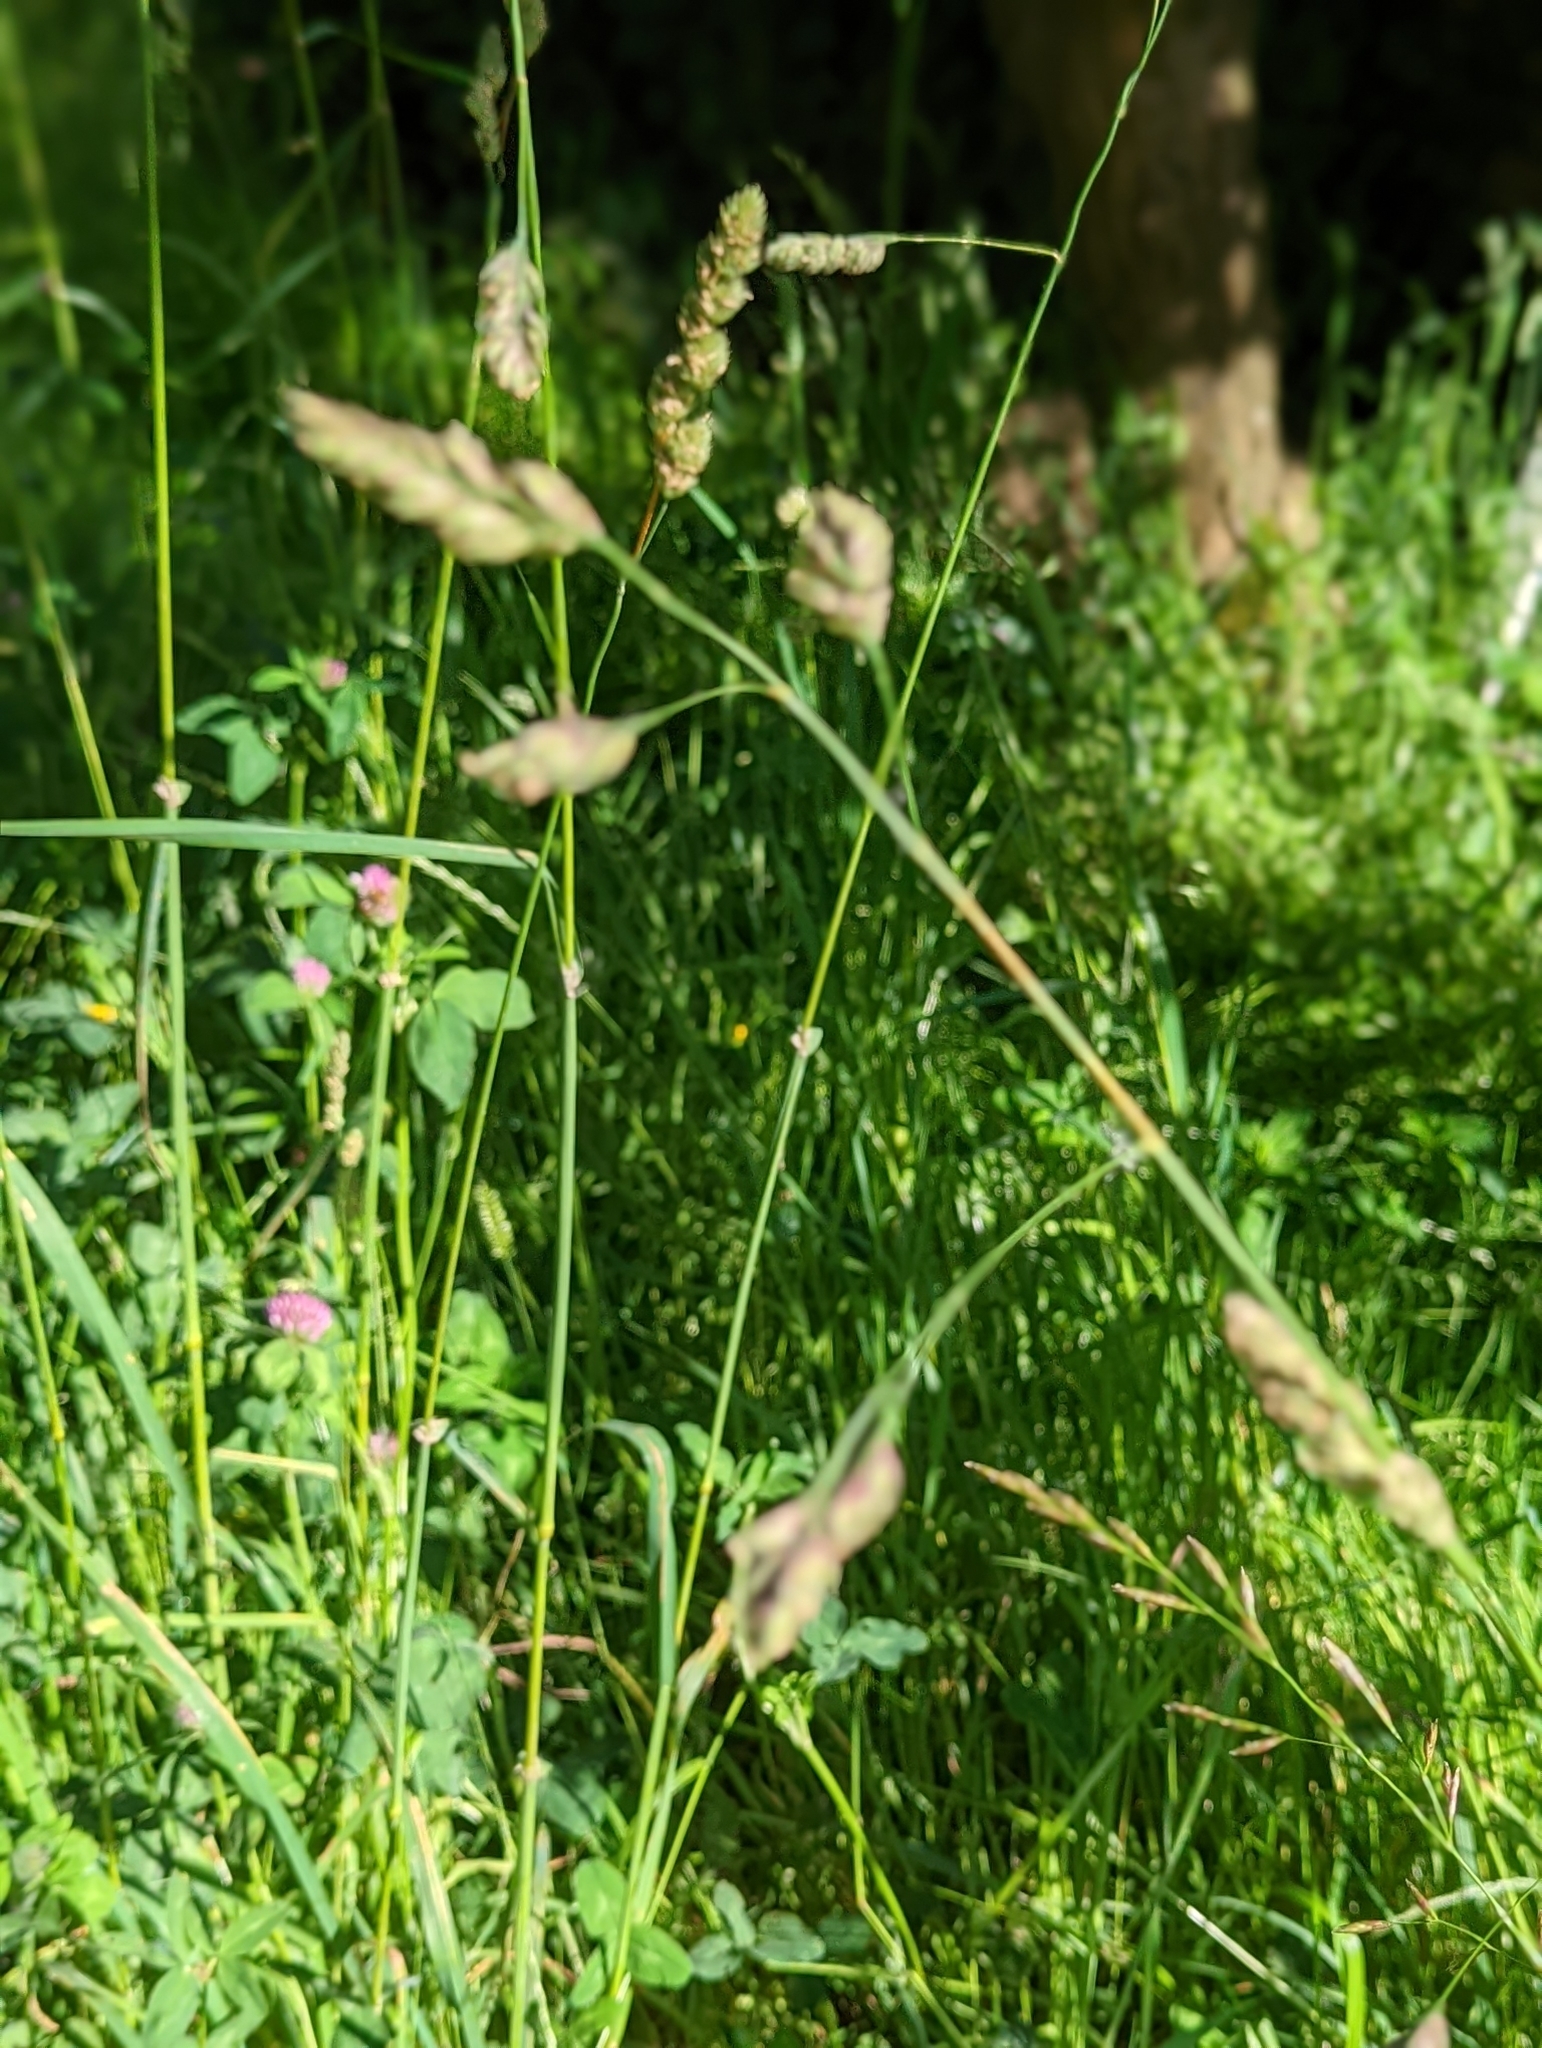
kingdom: Plantae
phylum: Tracheophyta
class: Liliopsida
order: Poales
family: Poaceae
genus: Dactylis
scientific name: Dactylis glomerata
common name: Orchardgrass
